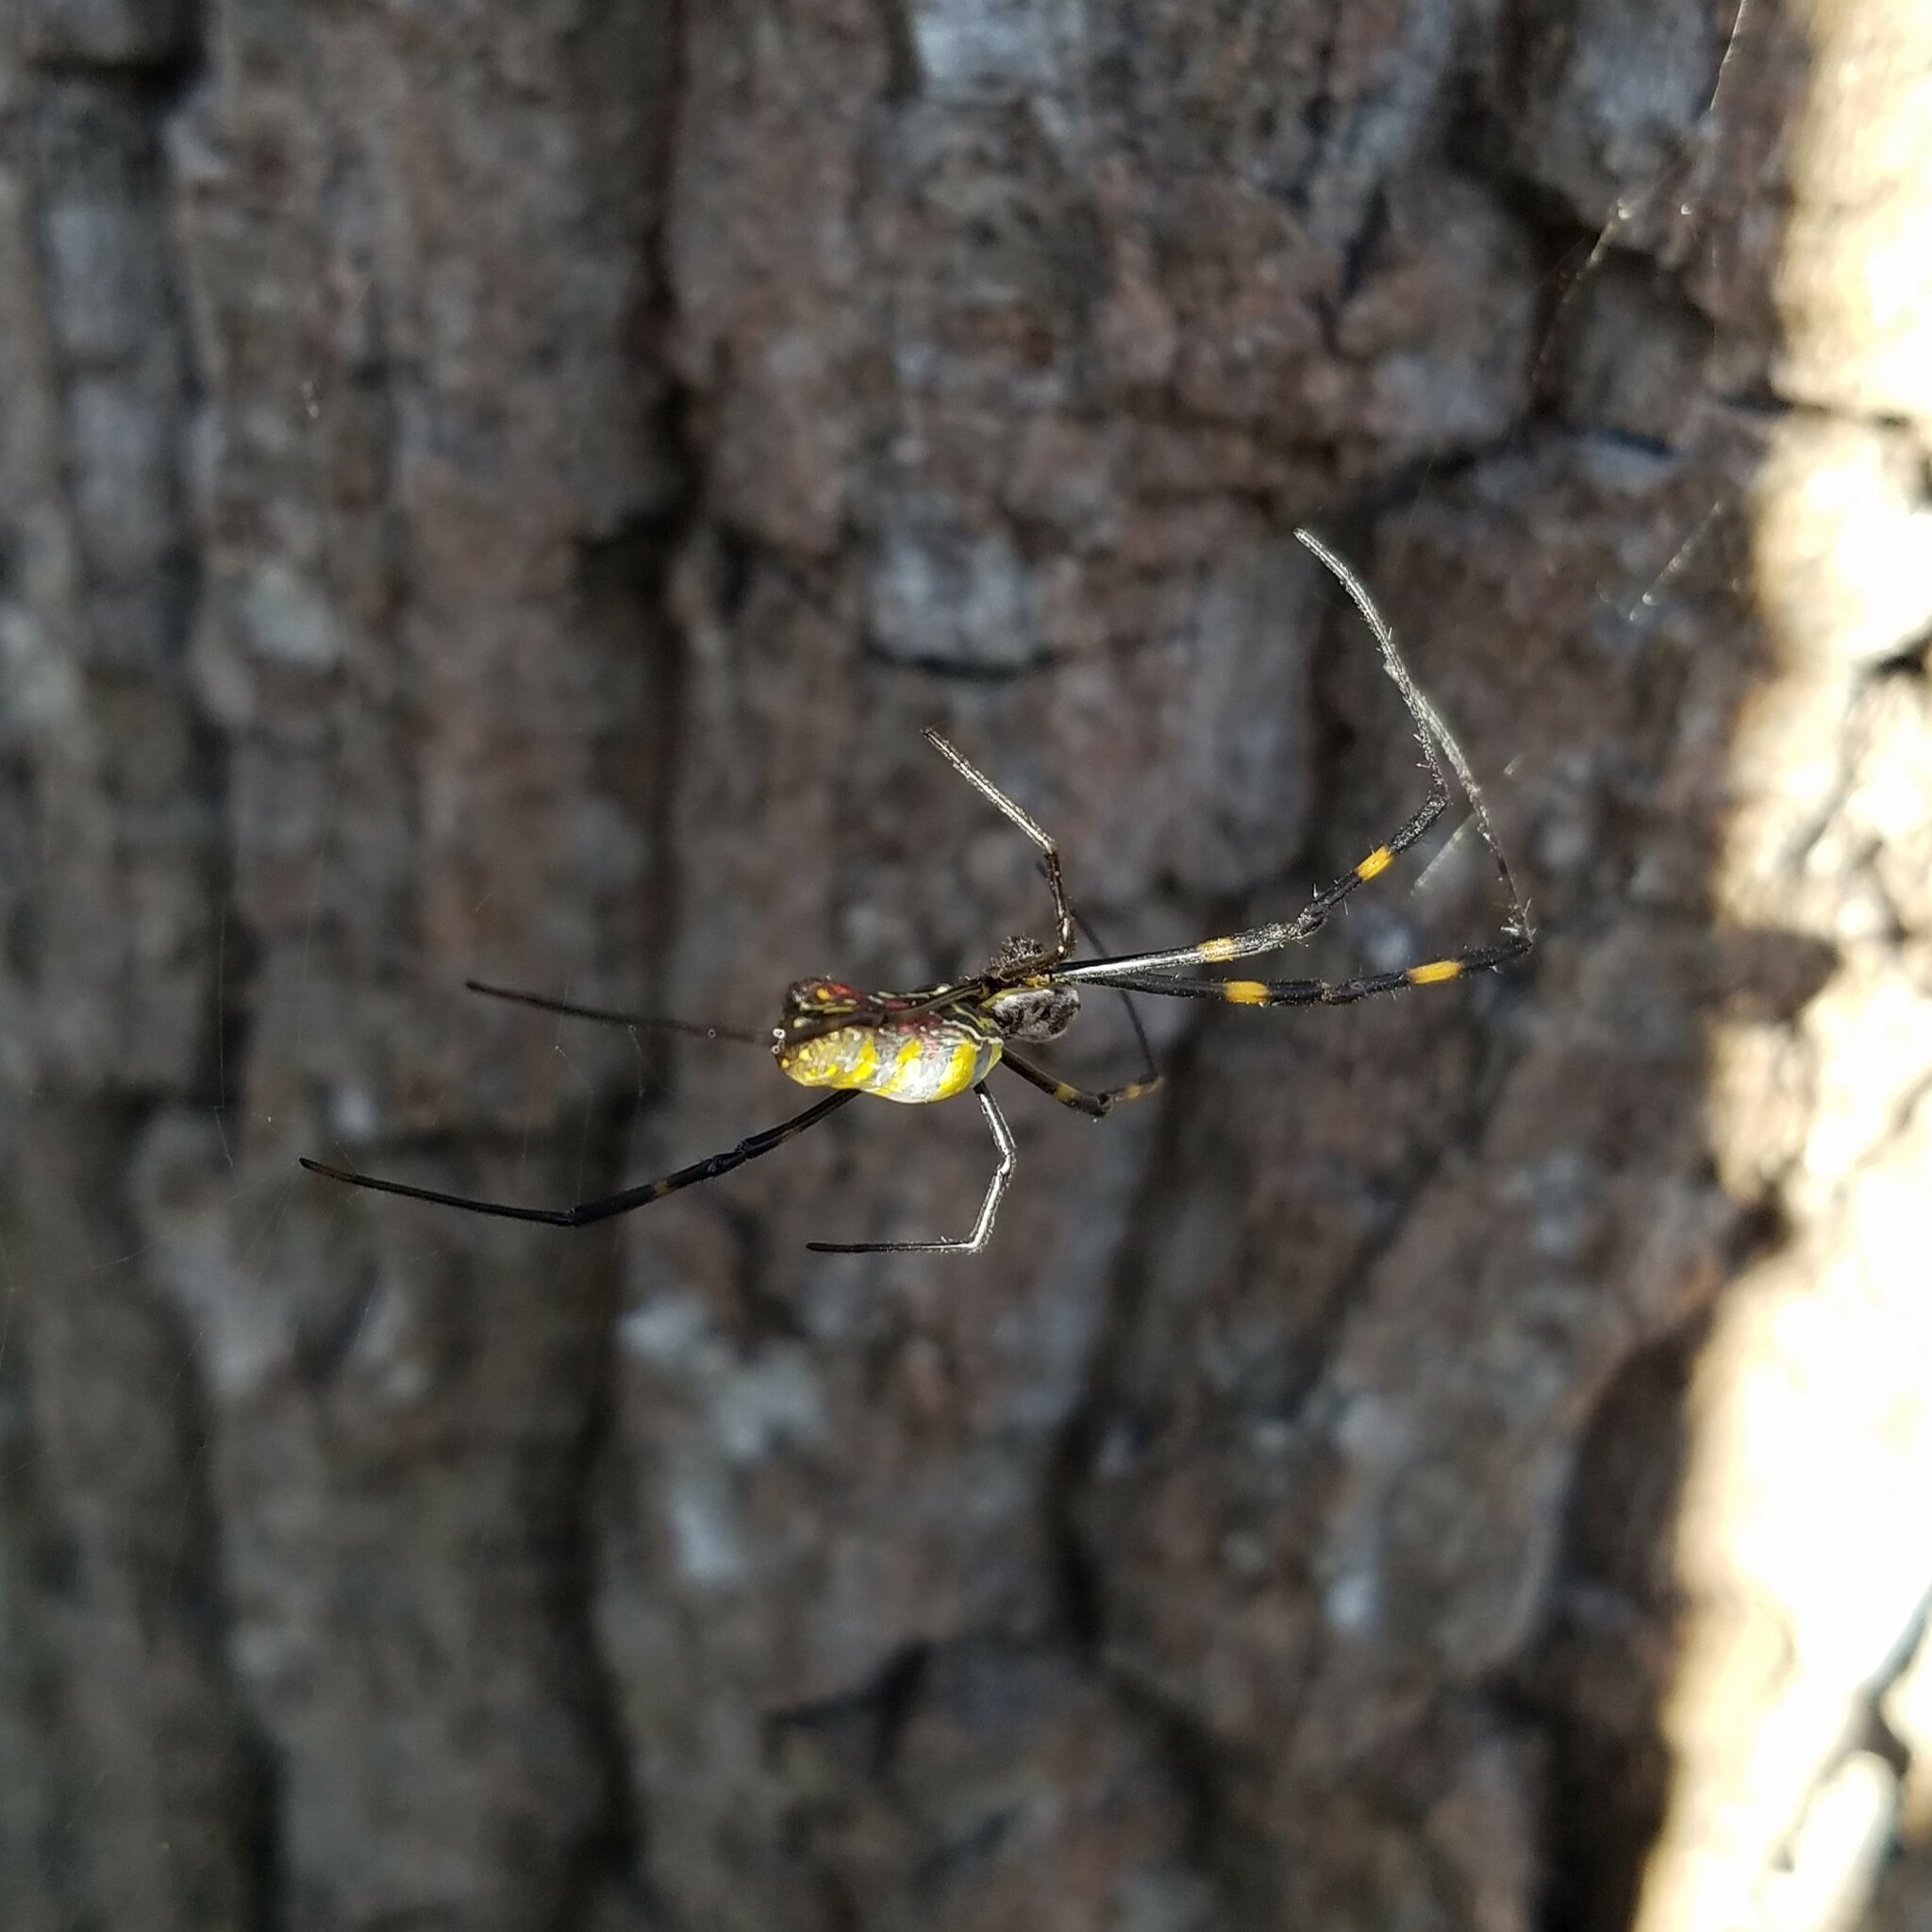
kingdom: Animalia
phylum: Arthropoda
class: Arachnida
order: Araneae
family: Araneidae
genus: Trichonephila
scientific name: Trichonephila clavata
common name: Jorō spider
